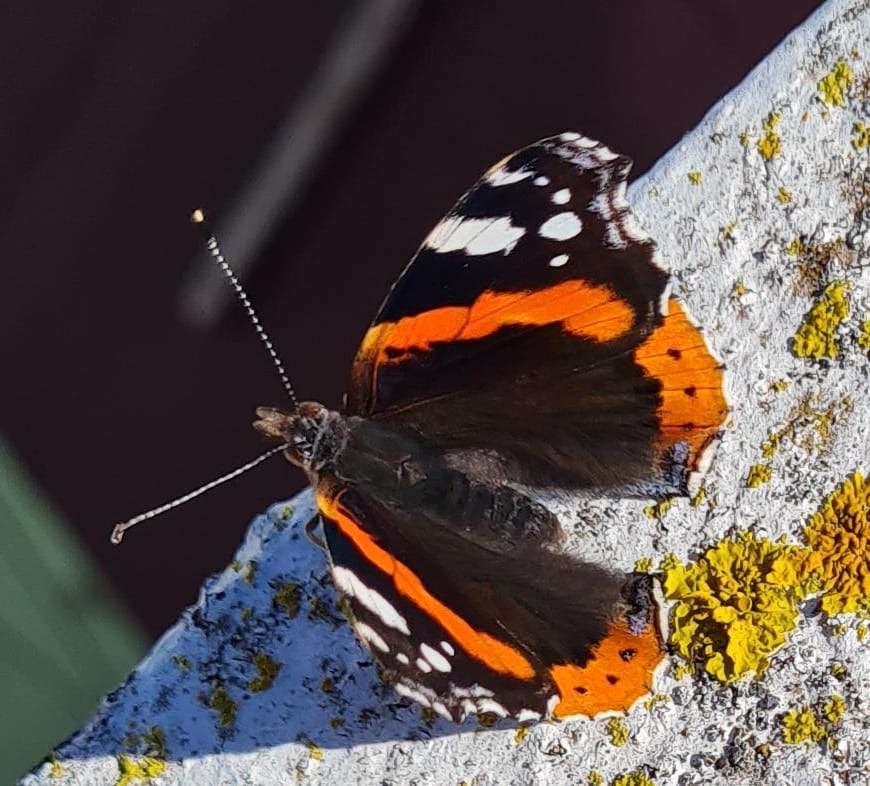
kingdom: Animalia
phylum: Arthropoda
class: Insecta
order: Lepidoptera
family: Nymphalidae
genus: Vanessa
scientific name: Vanessa atalanta
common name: Red admiral
